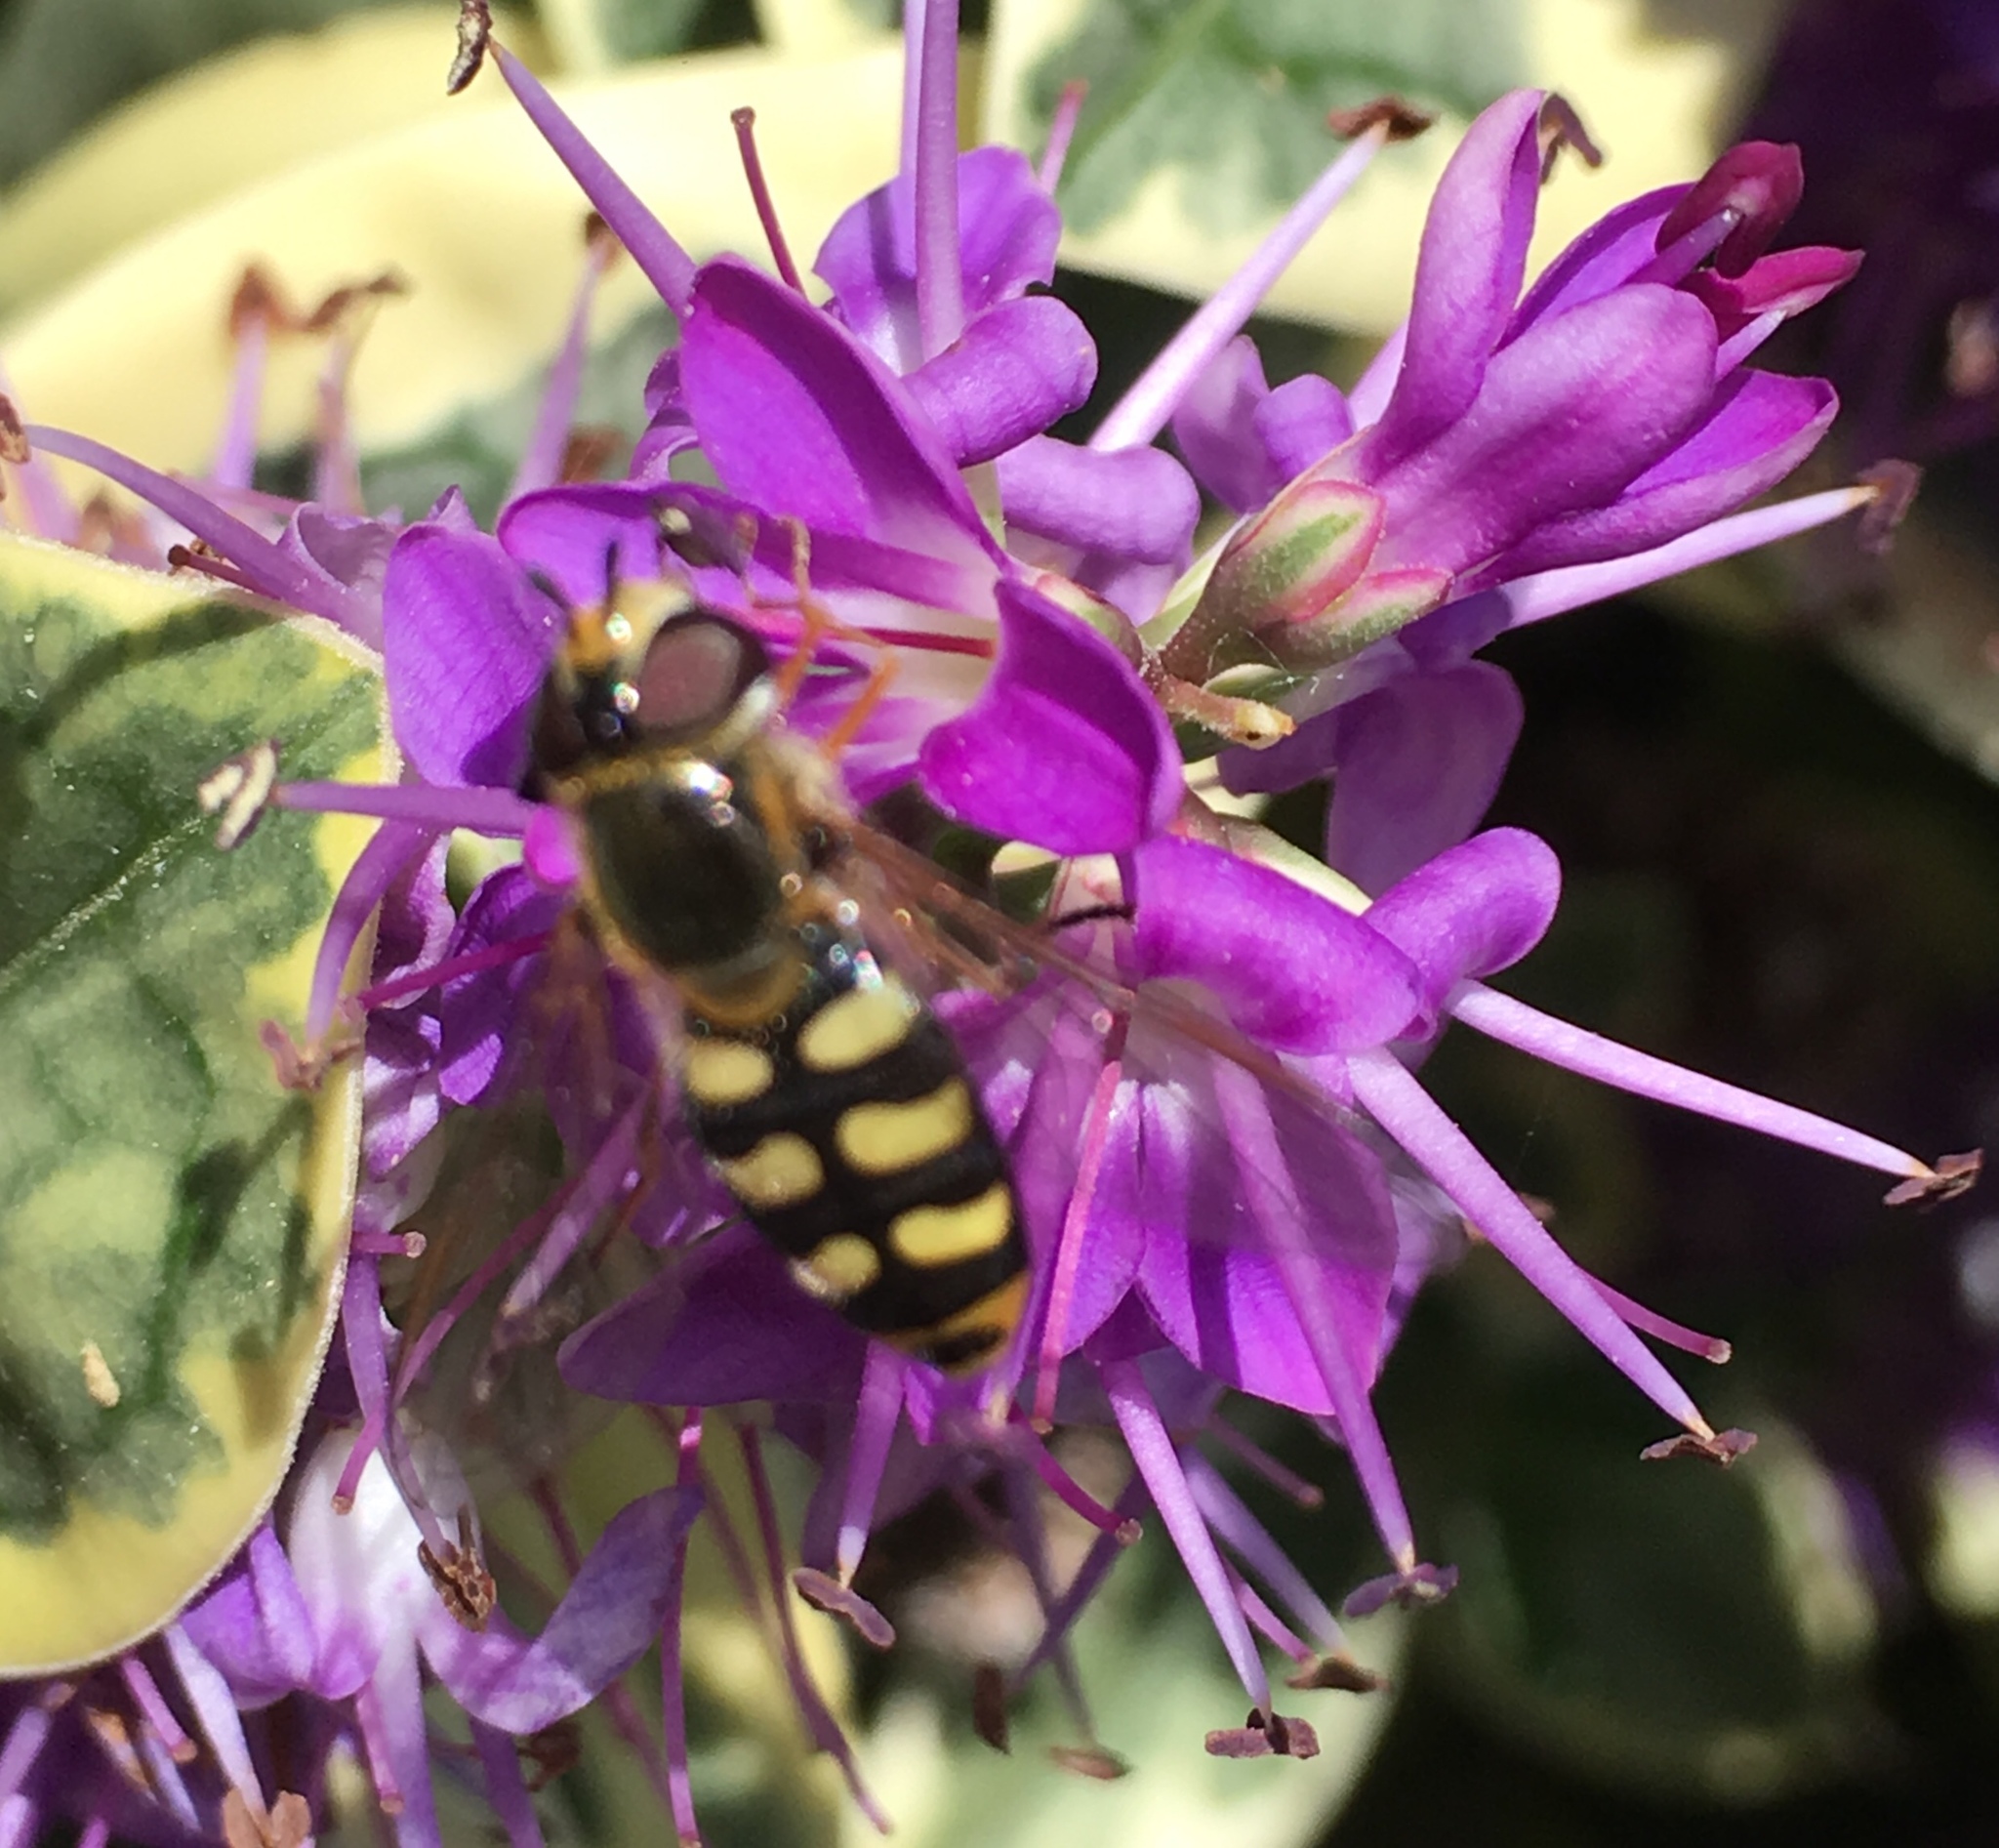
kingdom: Animalia
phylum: Arthropoda
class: Insecta
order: Diptera
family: Syrphidae
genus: Eupeodes
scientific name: Eupeodes luniger
